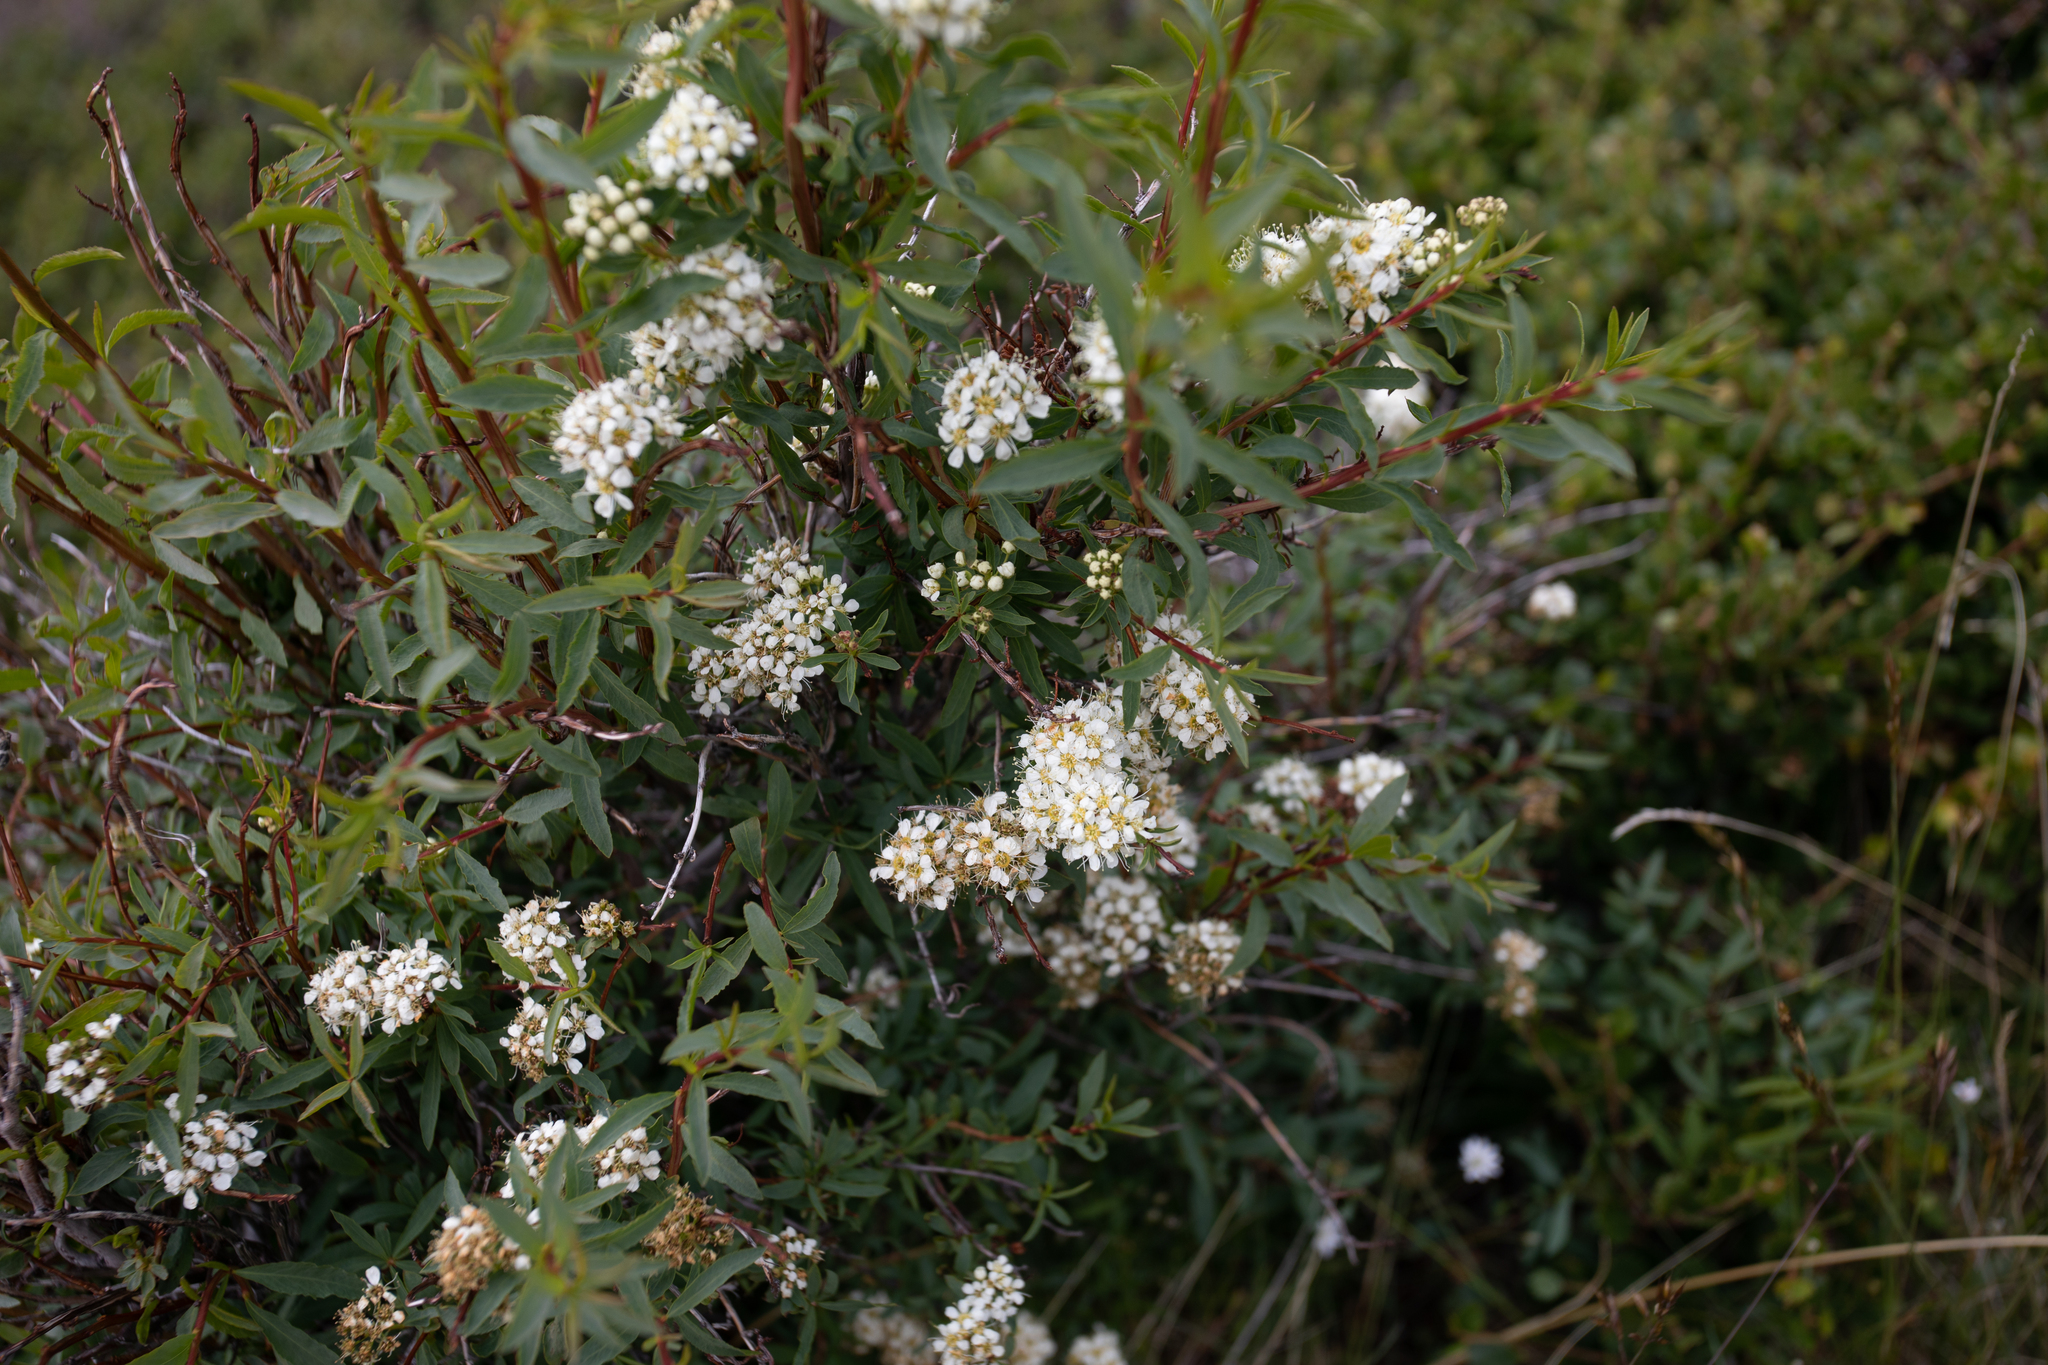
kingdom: Plantae
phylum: Tracheophyta
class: Magnoliopsida
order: Rosales
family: Rosaceae
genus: Spiraea
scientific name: Spiraea alpina
